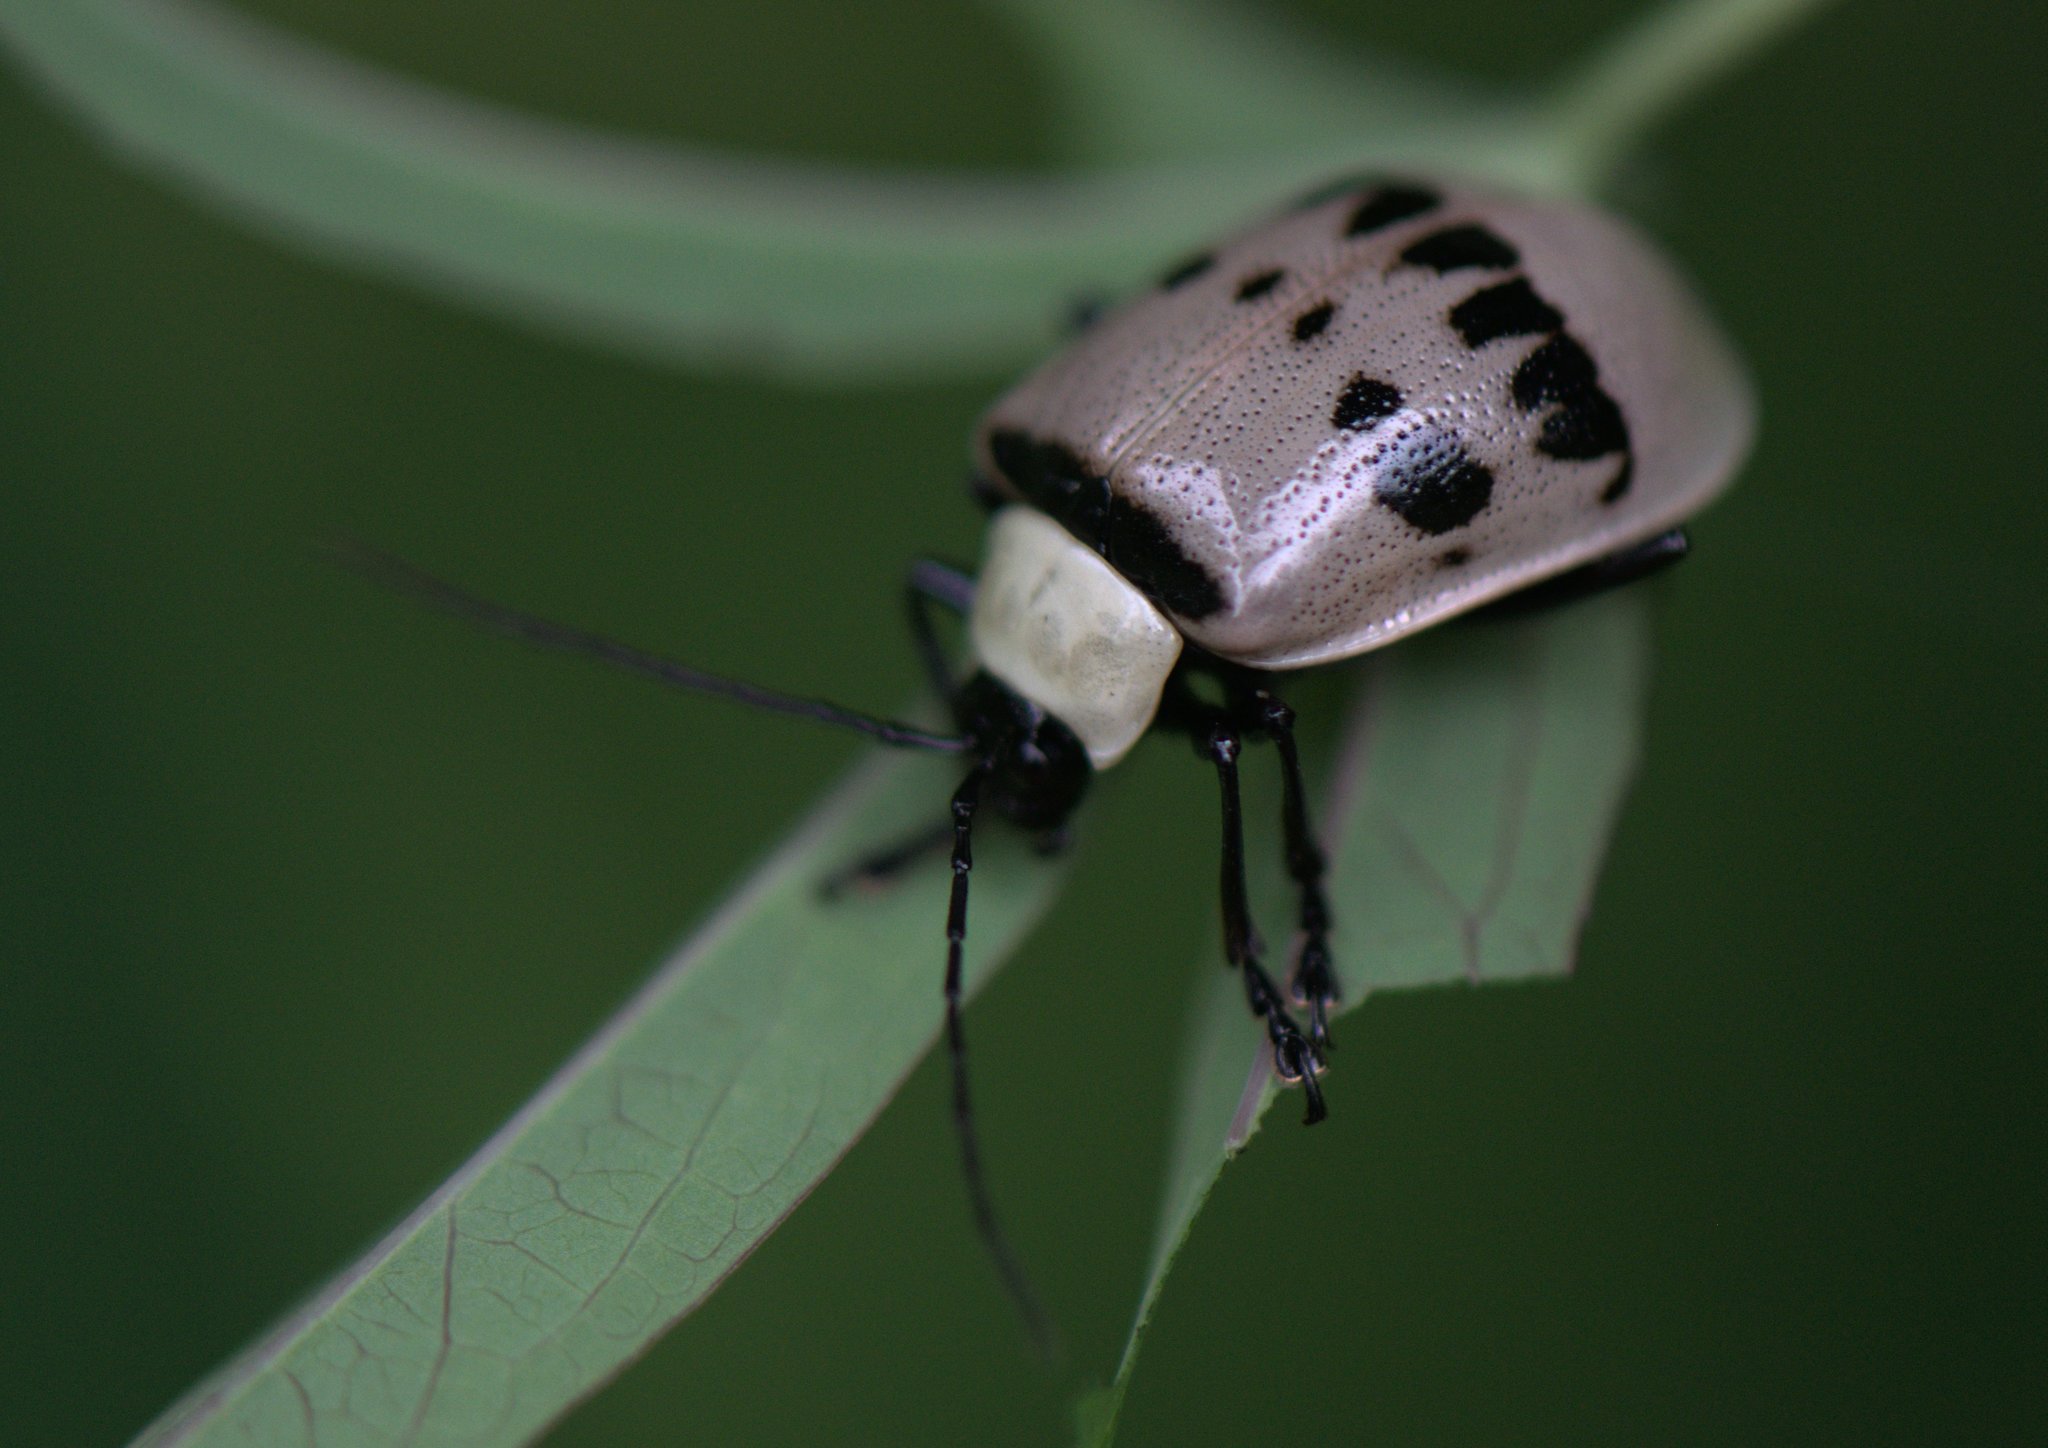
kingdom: Animalia
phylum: Arthropoda
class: Insecta
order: Coleoptera
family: Chrysomelidae
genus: Meristata
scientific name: Meristata
